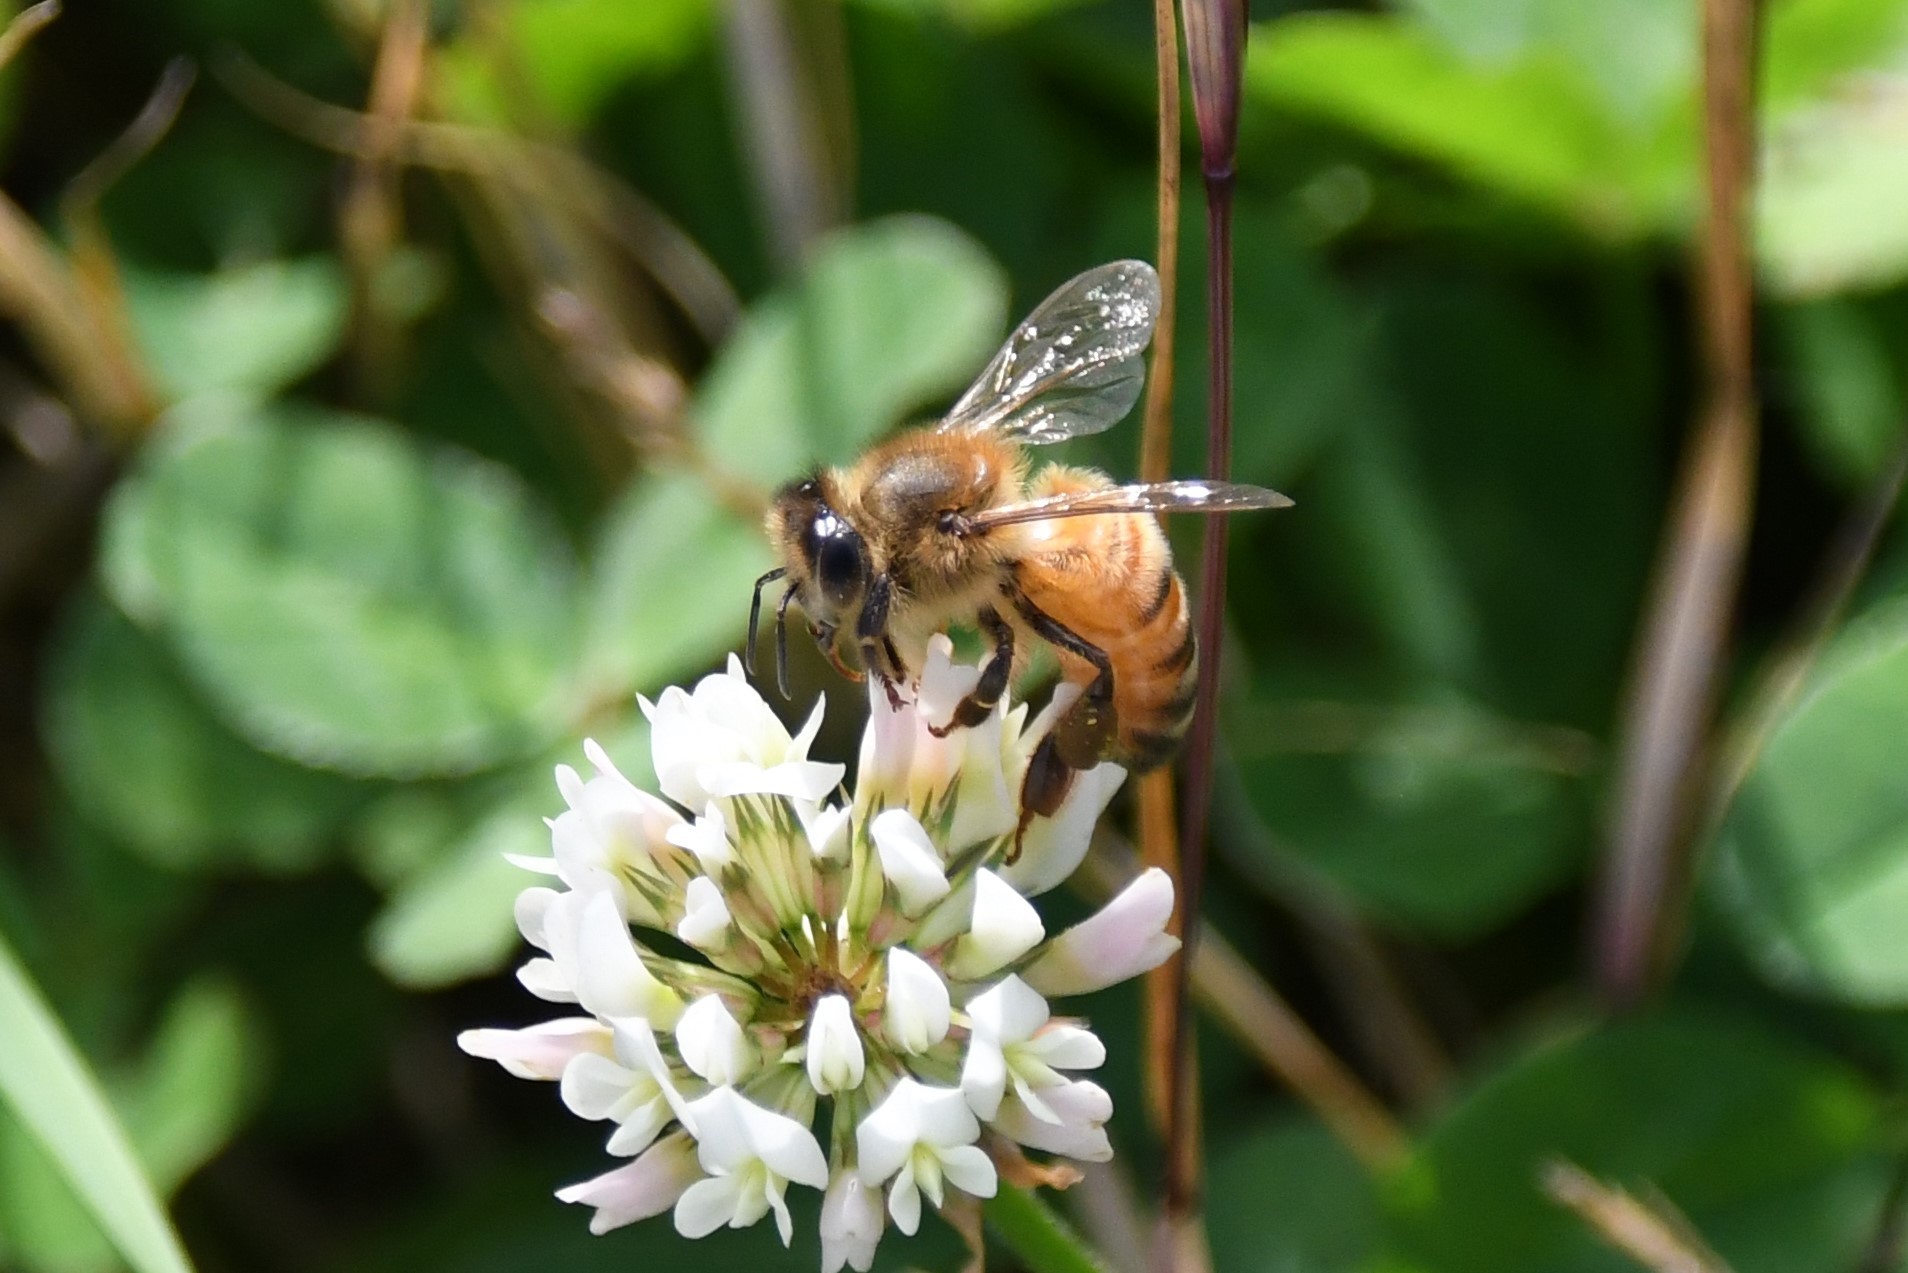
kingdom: Animalia
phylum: Arthropoda
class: Insecta
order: Hymenoptera
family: Apidae
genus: Apis
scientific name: Apis mellifera
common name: Honey bee
